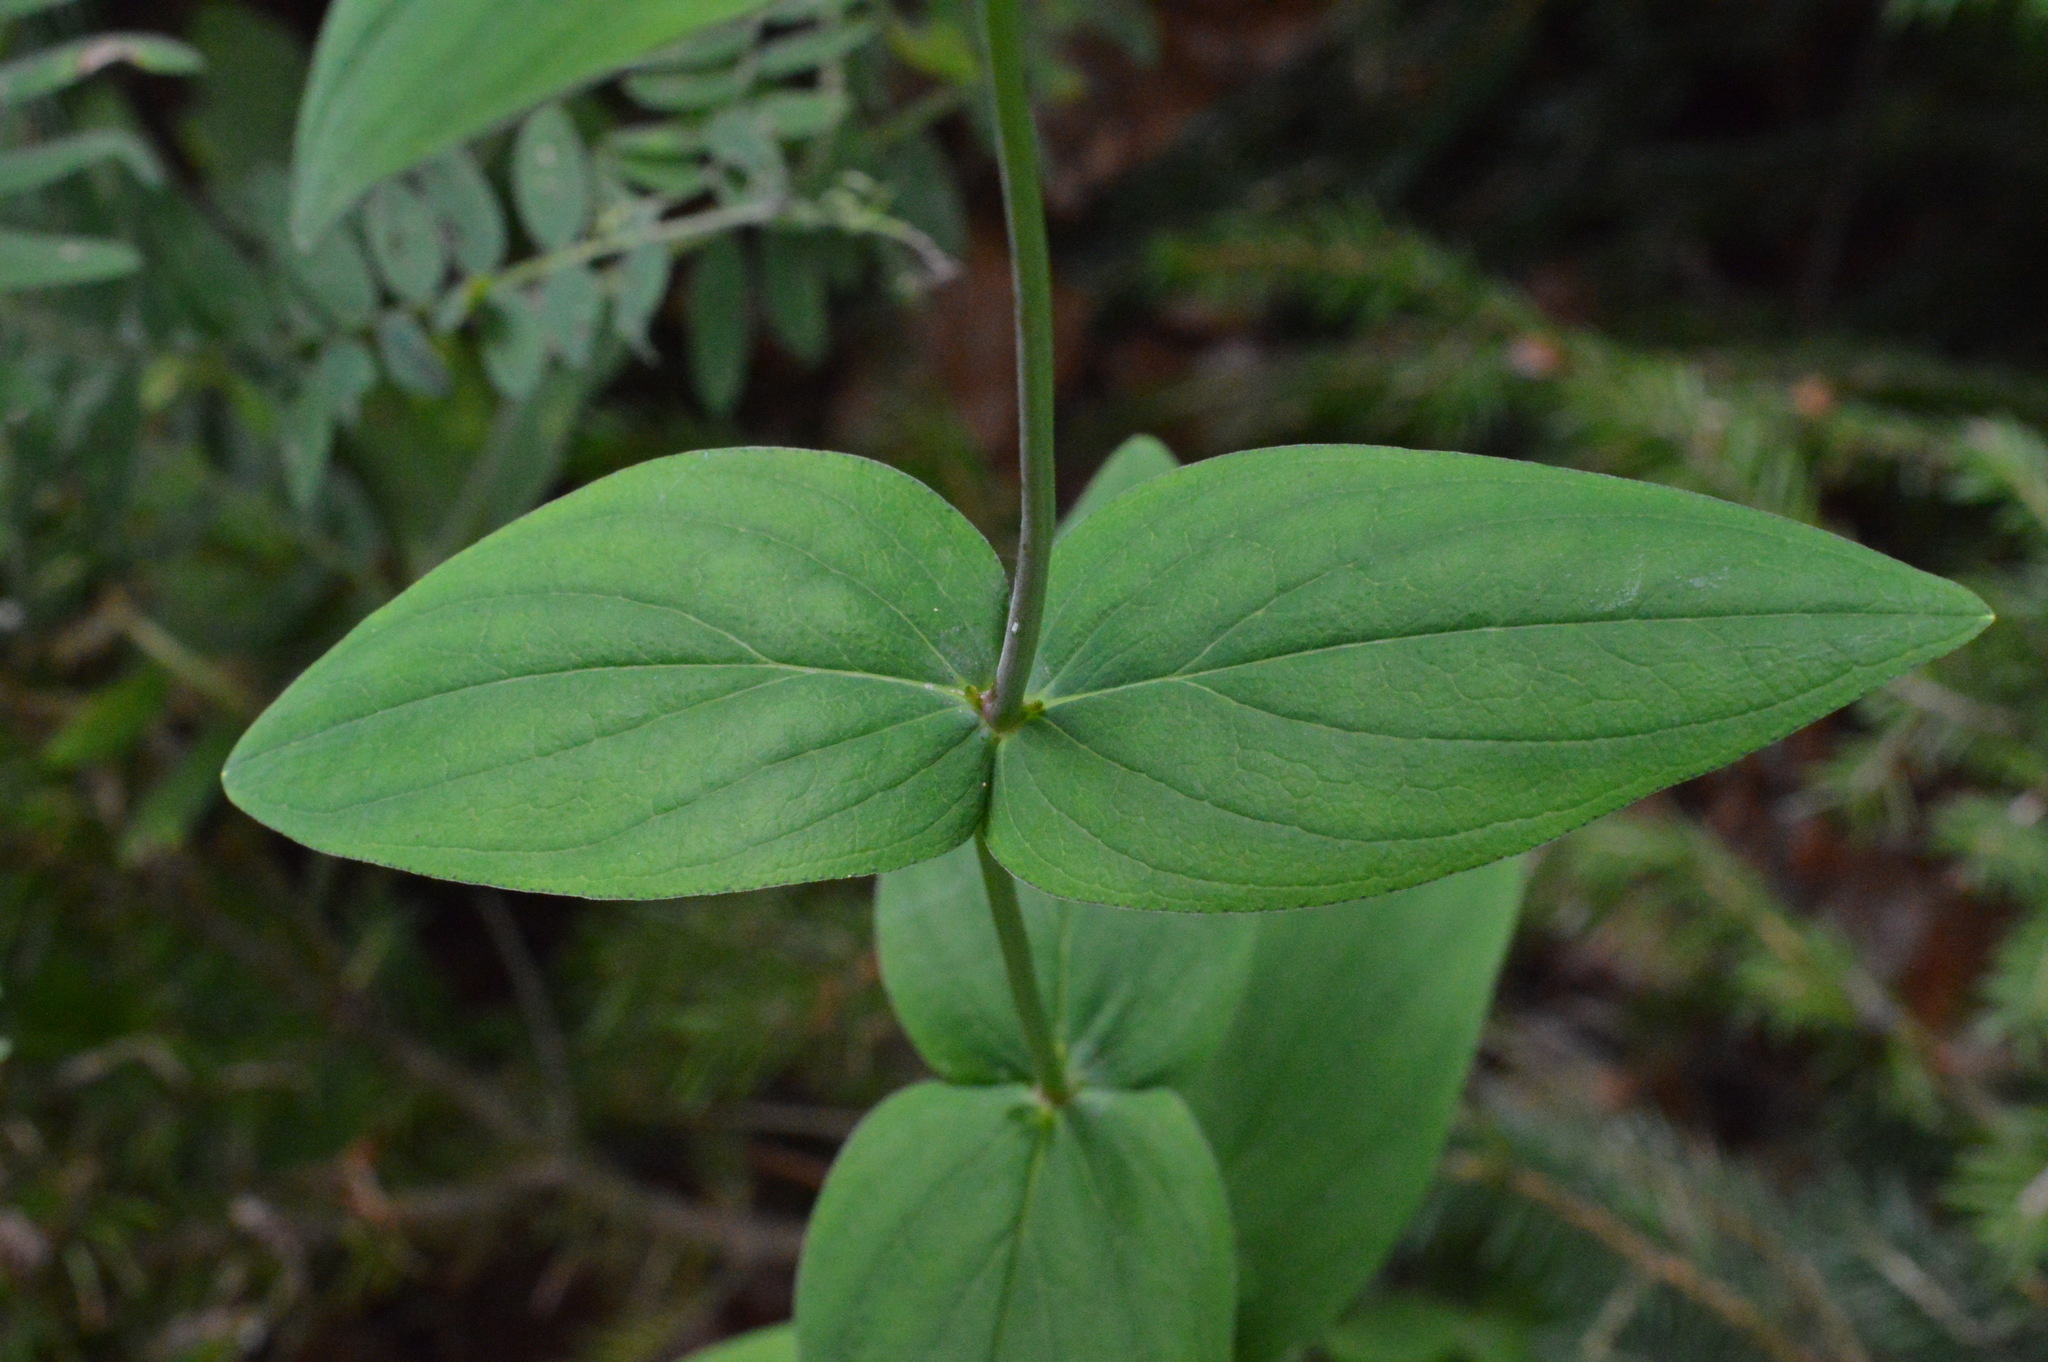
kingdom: Plantae
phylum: Tracheophyta
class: Magnoliopsida
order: Malpighiales
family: Hypericaceae
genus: Hypericum
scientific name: Hypericum montanum
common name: Pale st. john's-wort
